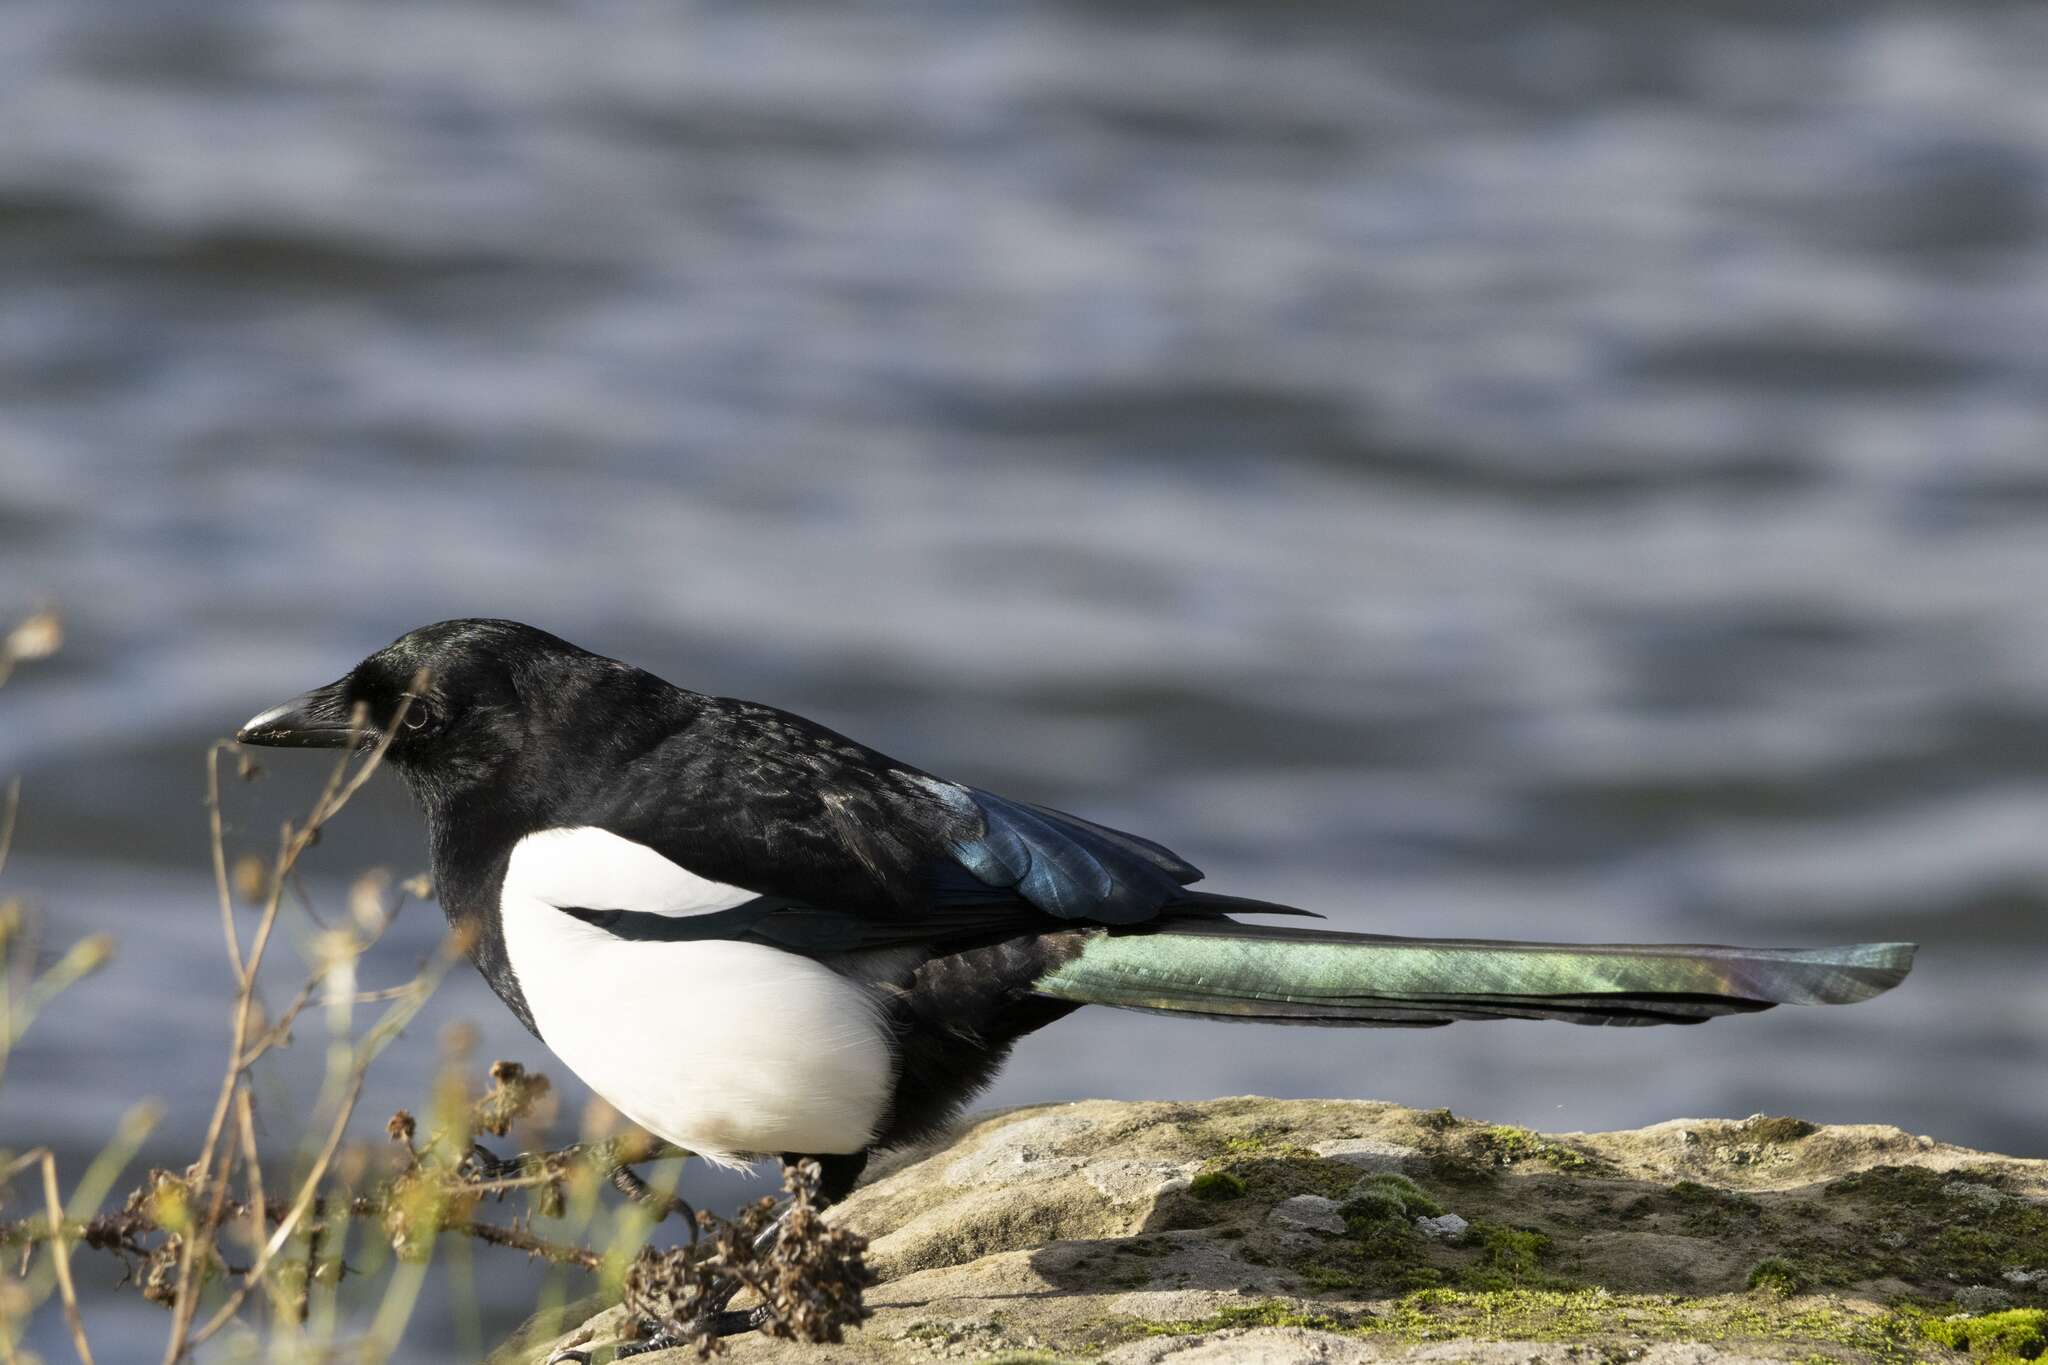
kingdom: Animalia
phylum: Chordata
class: Aves
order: Passeriformes
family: Corvidae
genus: Pica
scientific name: Pica pica
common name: Eurasian magpie
